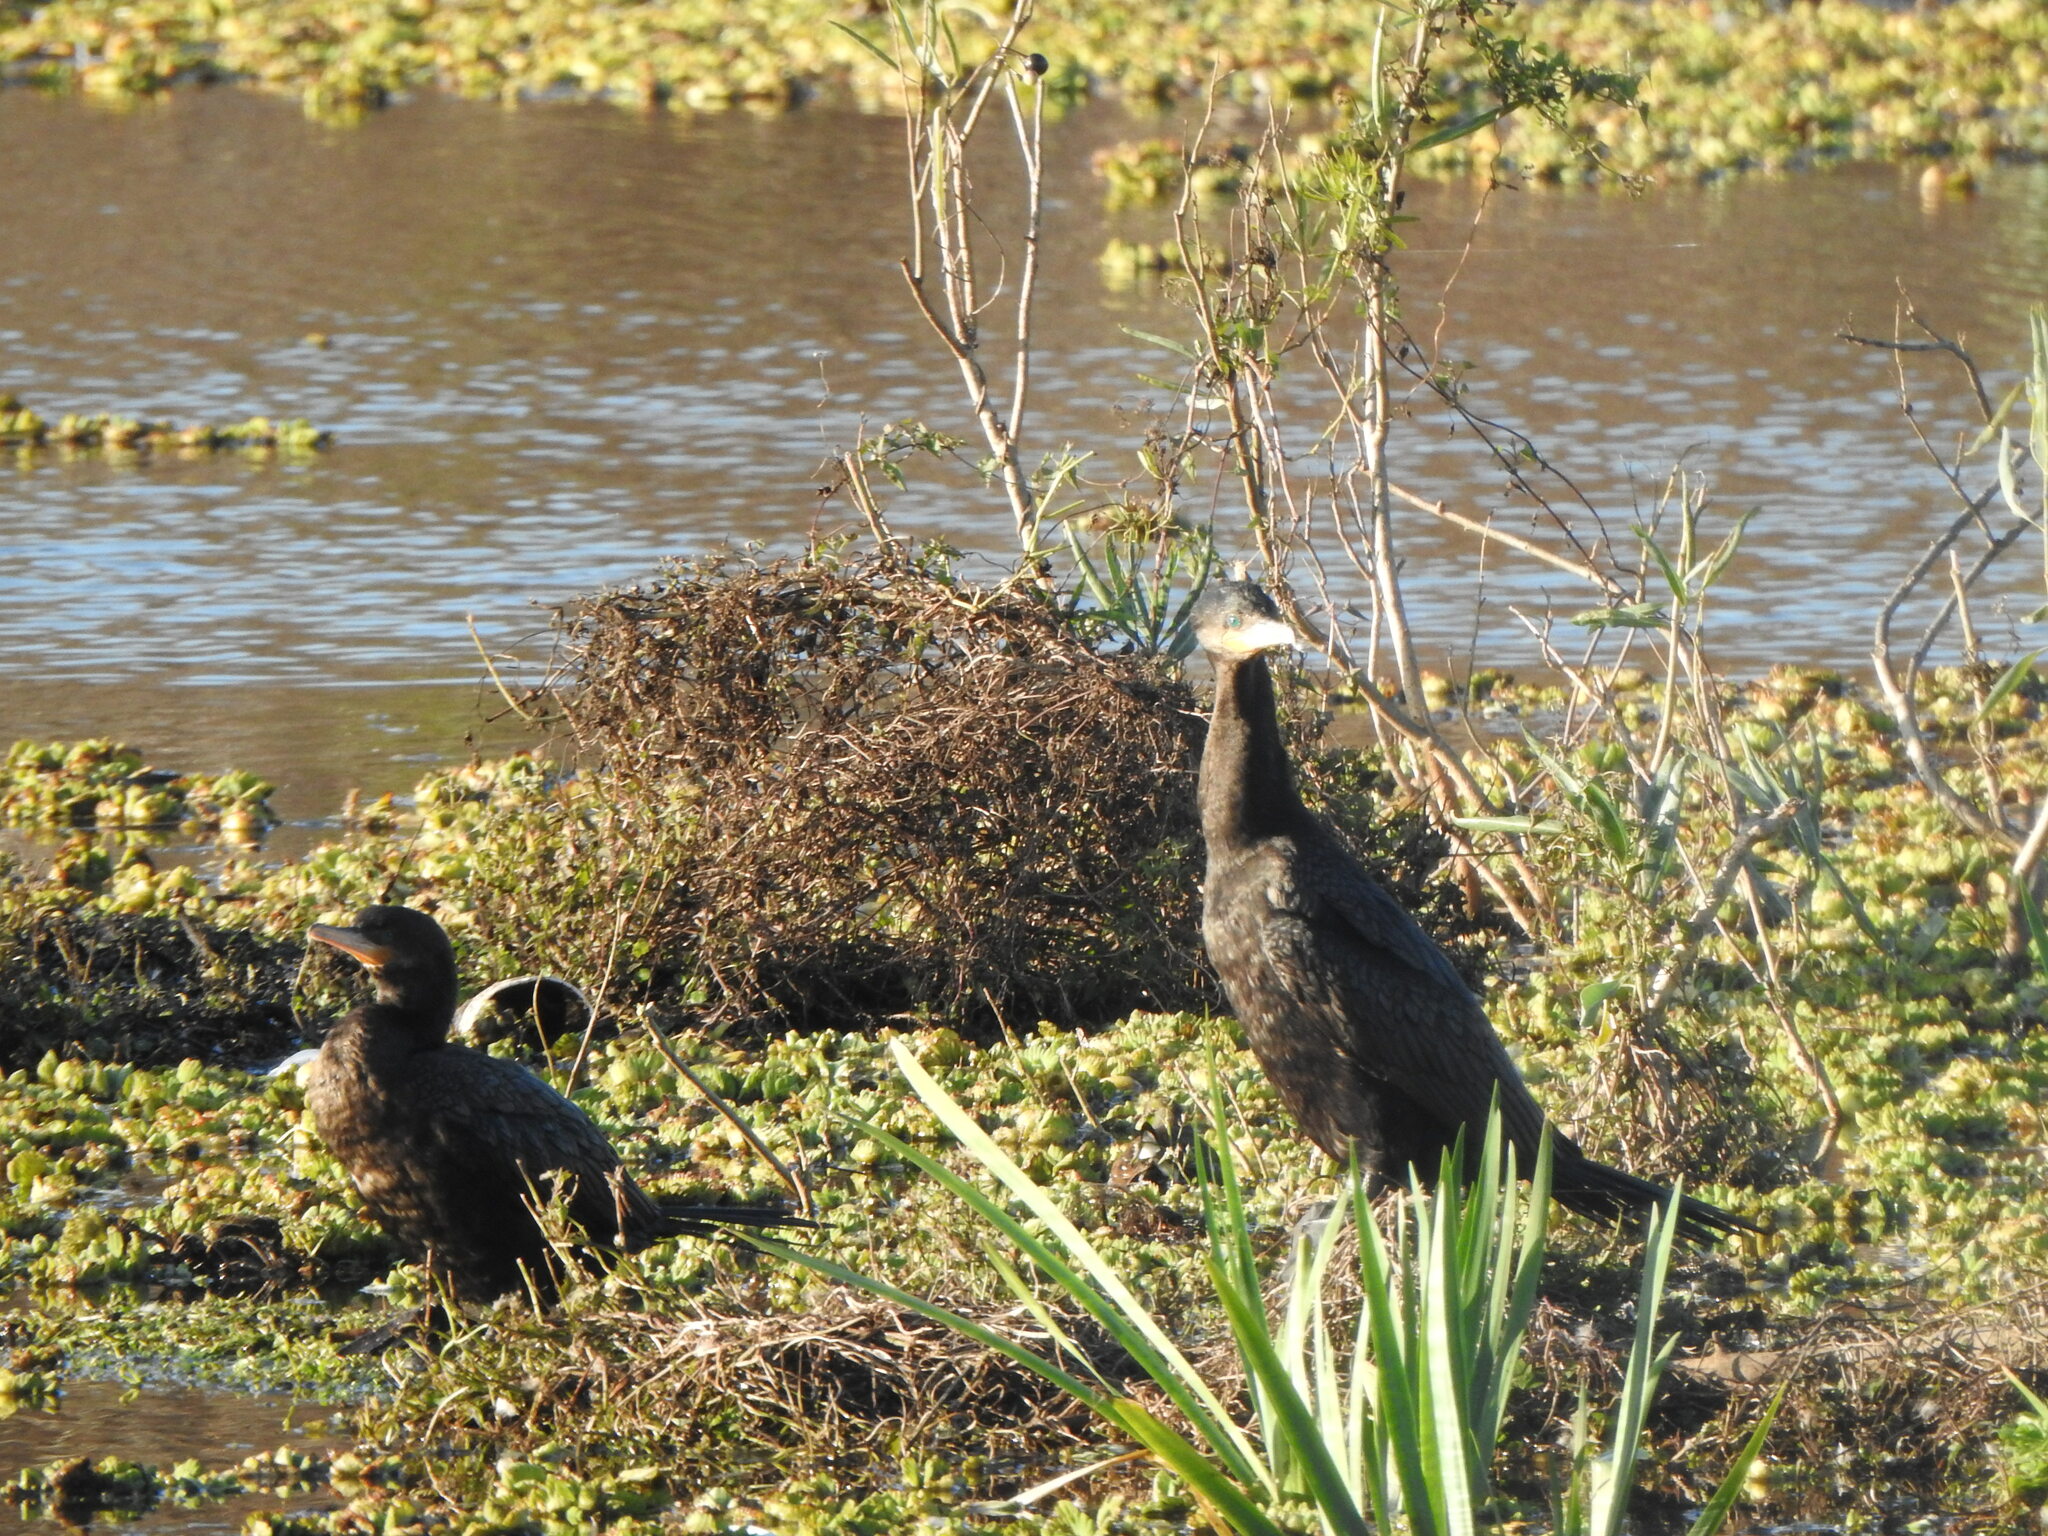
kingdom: Animalia
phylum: Chordata
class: Aves
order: Suliformes
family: Phalacrocoracidae
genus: Phalacrocorax
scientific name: Phalacrocorax brasilianus
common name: Neotropic cormorant
